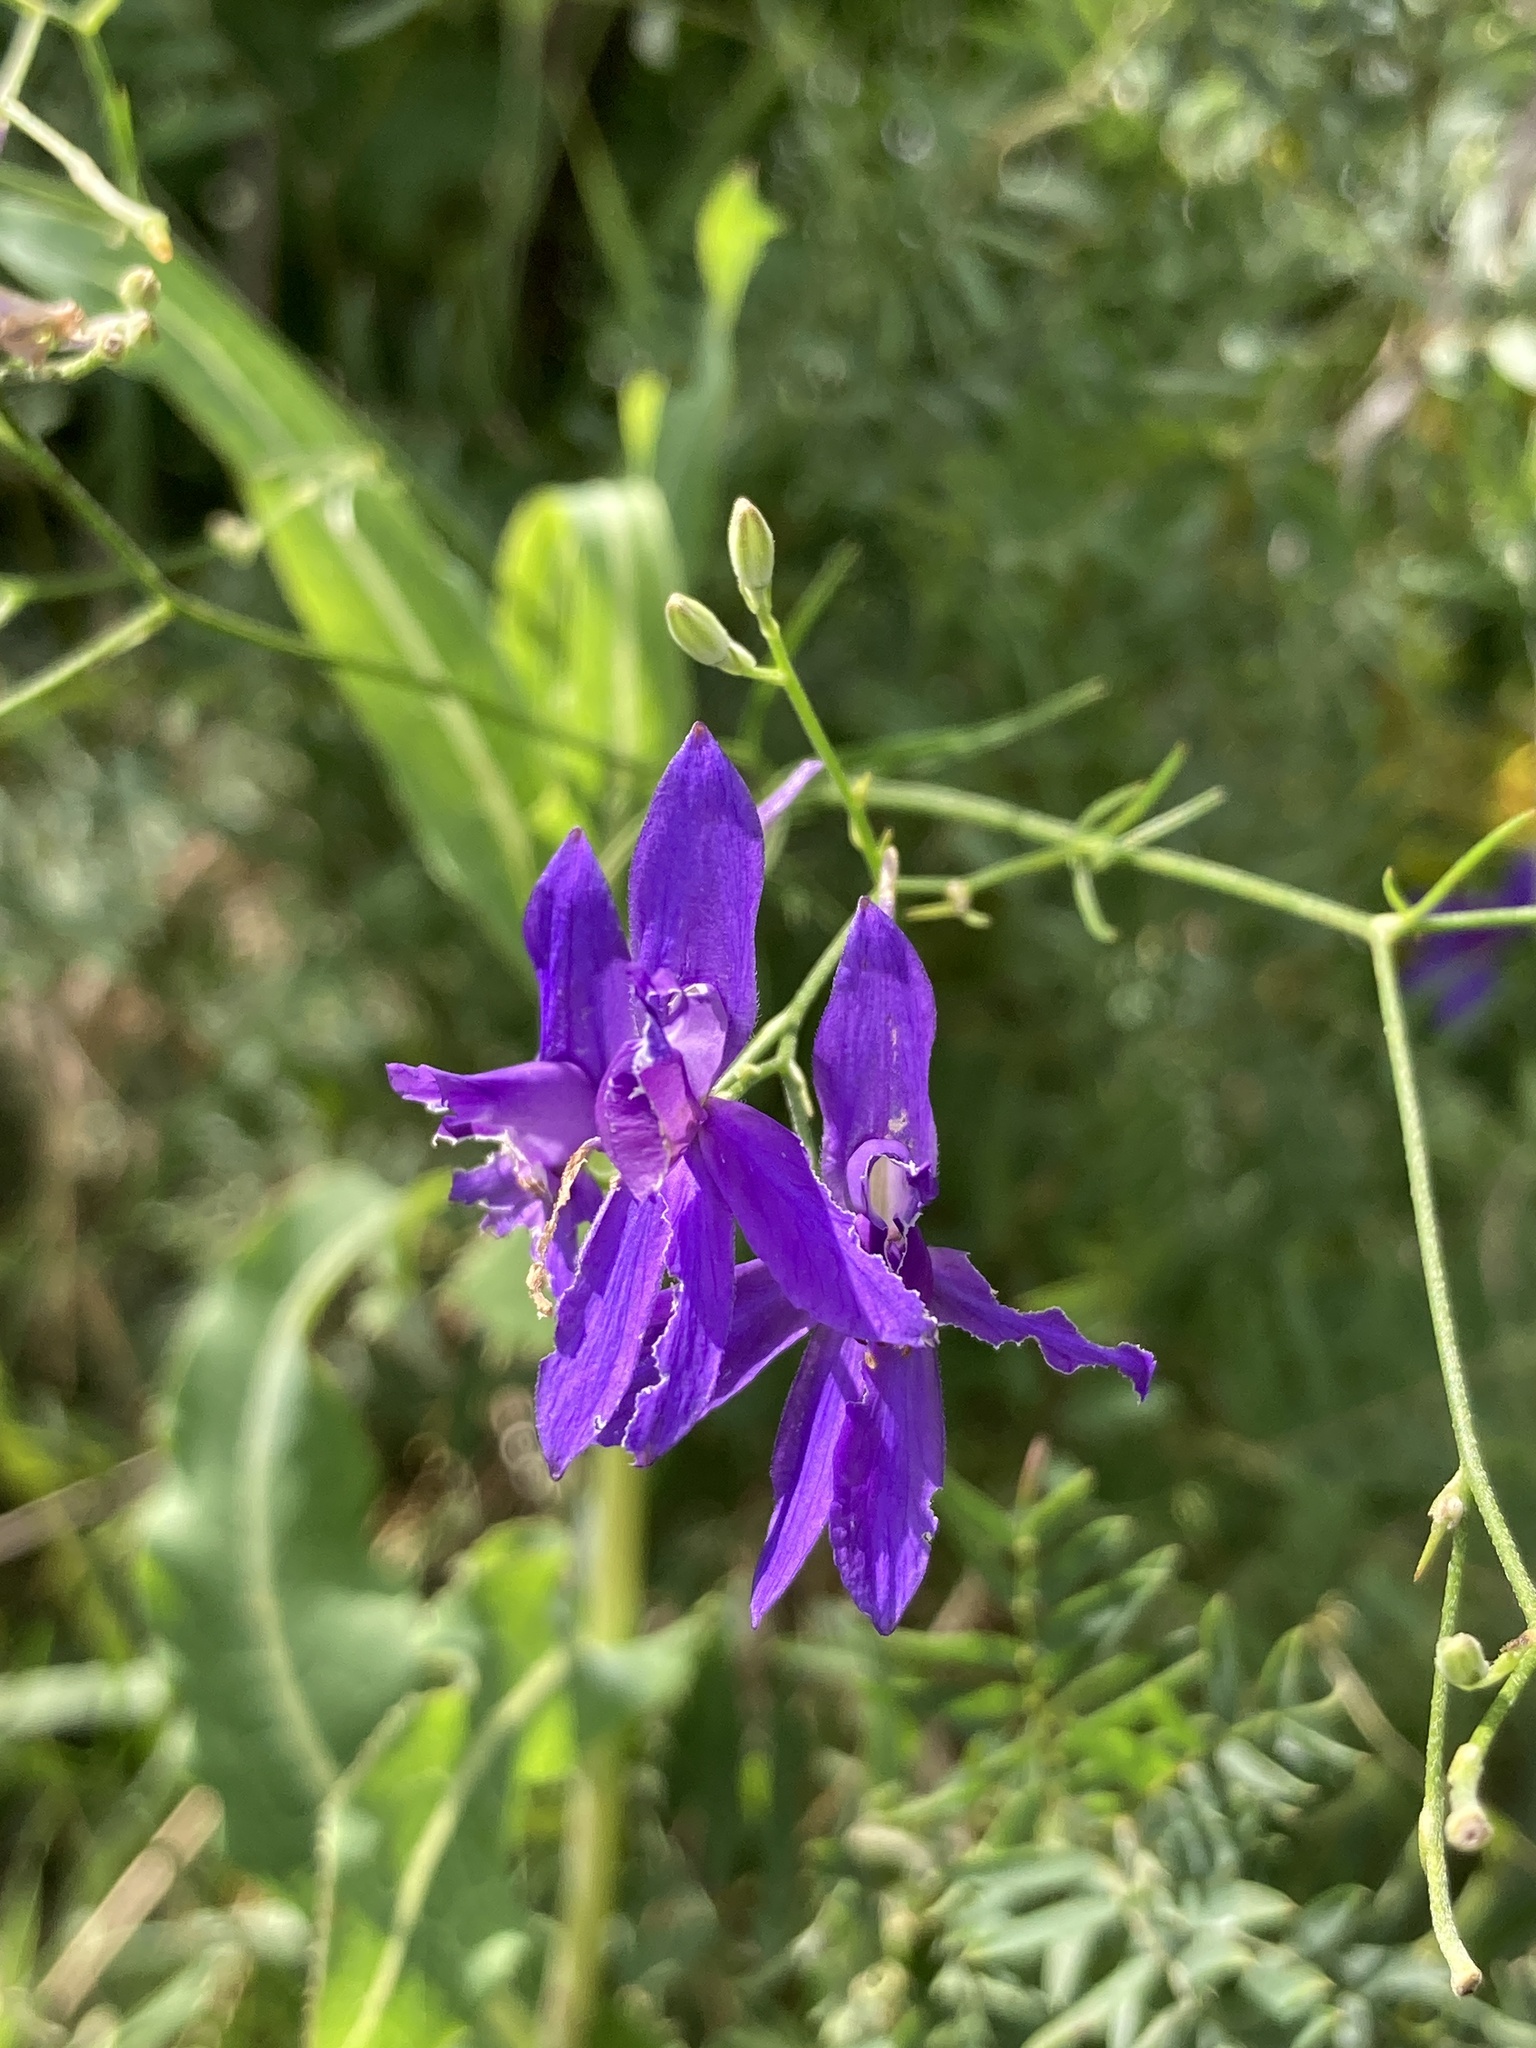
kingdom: Plantae
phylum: Tracheophyta
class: Magnoliopsida
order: Ranunculales
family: Ranunculaceae
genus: Delphinium
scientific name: Delphinium consolida
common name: Branching larkspur
